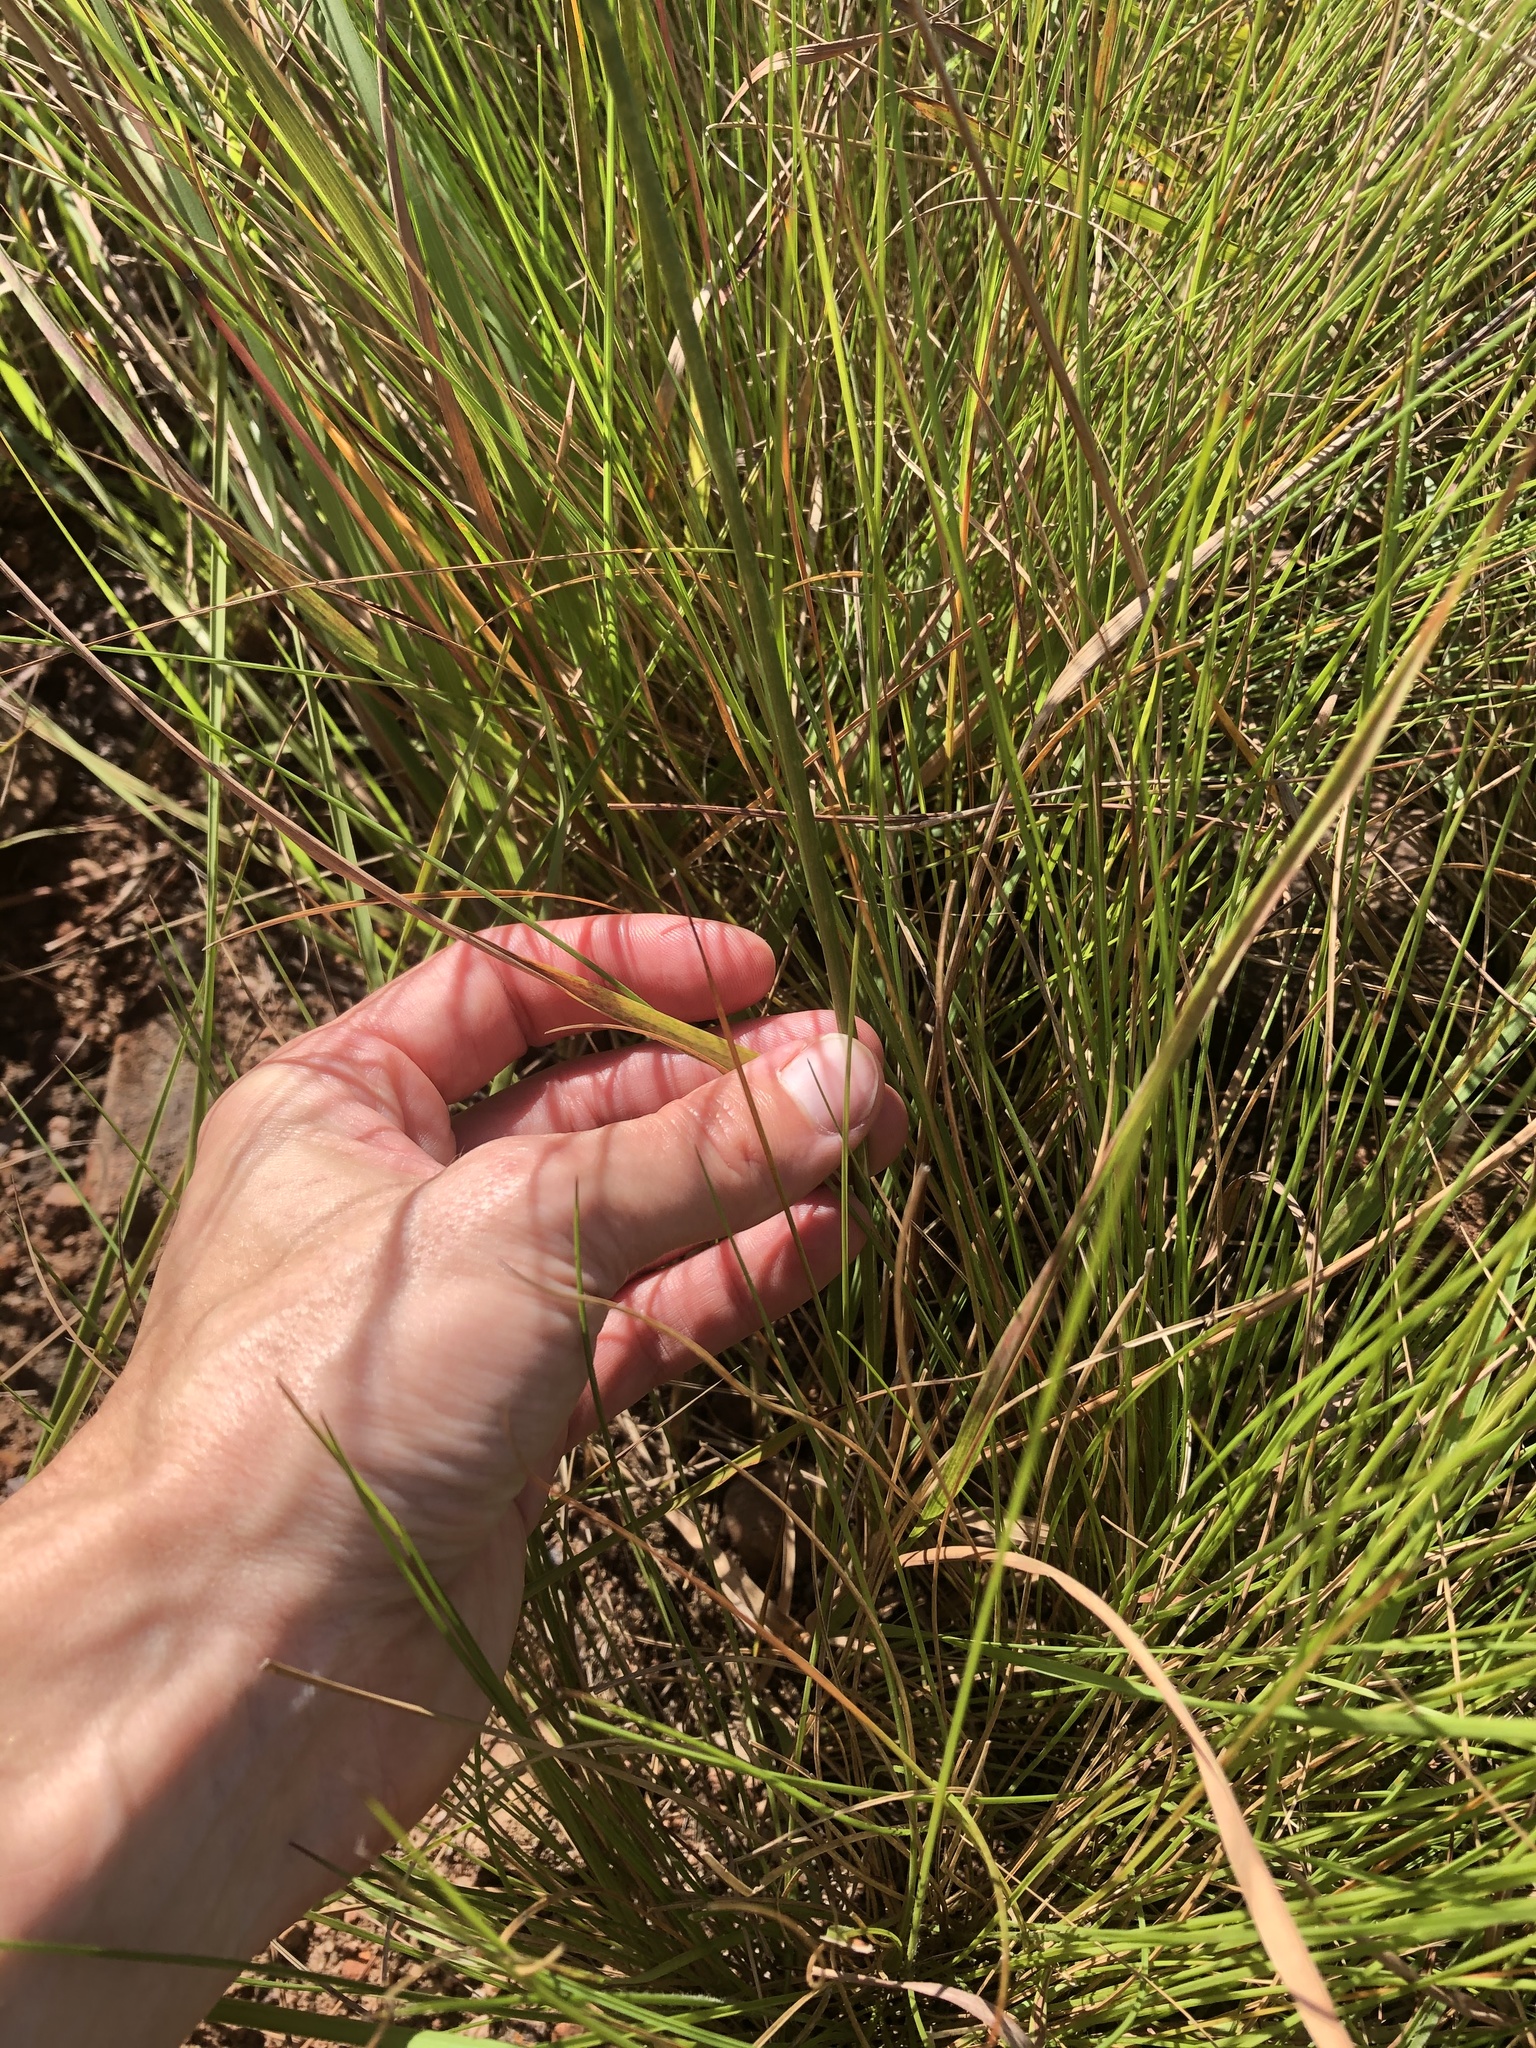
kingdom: Plantae
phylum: Tracheophyta
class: Liliopsida
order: Poales
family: Poaceae
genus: Ctenium
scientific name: Ctenium concinnum
